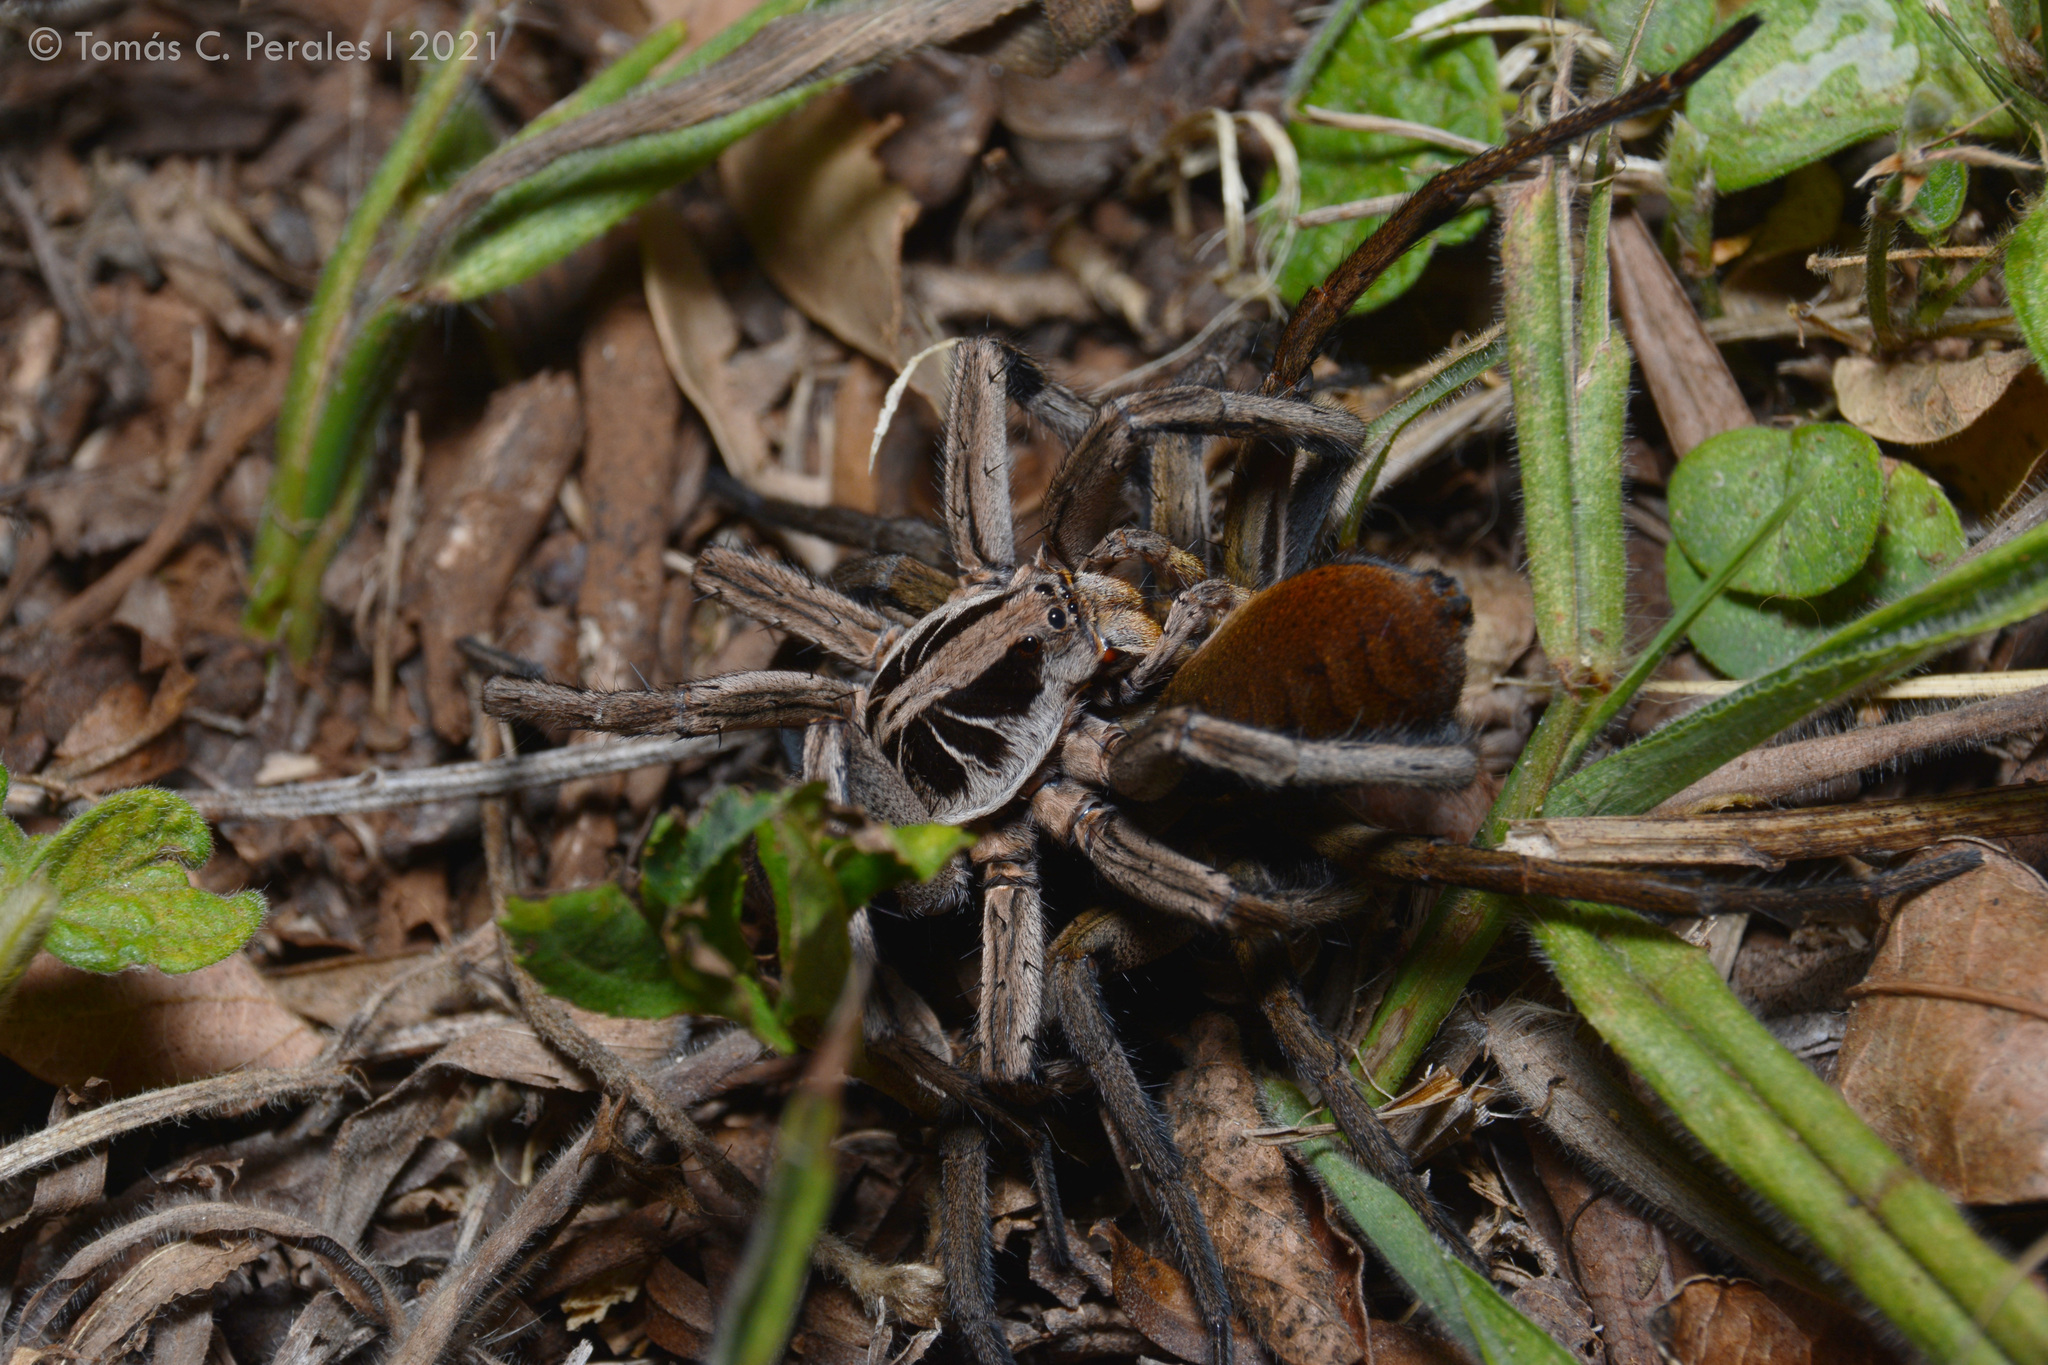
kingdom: Animalia
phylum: Arthropoda
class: Arachnida
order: Araneae
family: Lycosidae
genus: Lycosa
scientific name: Lycosa erythrognatha
